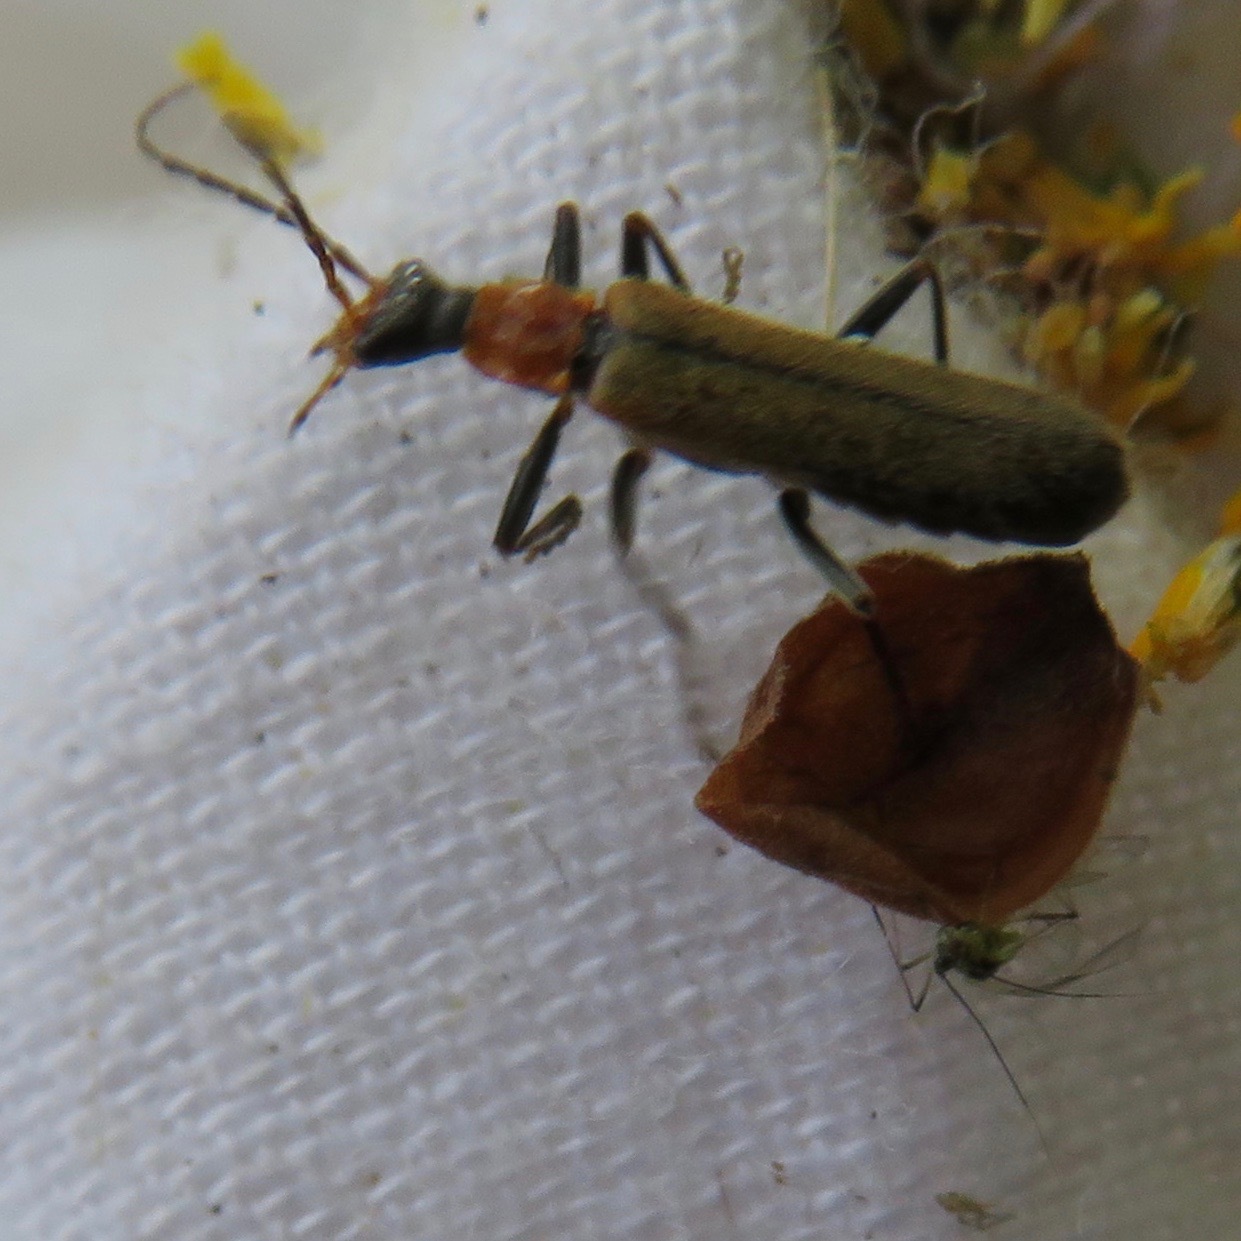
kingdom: Animalia
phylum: Arthropoda
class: Insecta
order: Coleoptera
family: Cantharidae
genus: Dichelotarsus
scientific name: Dichelotarsus cavicollis
